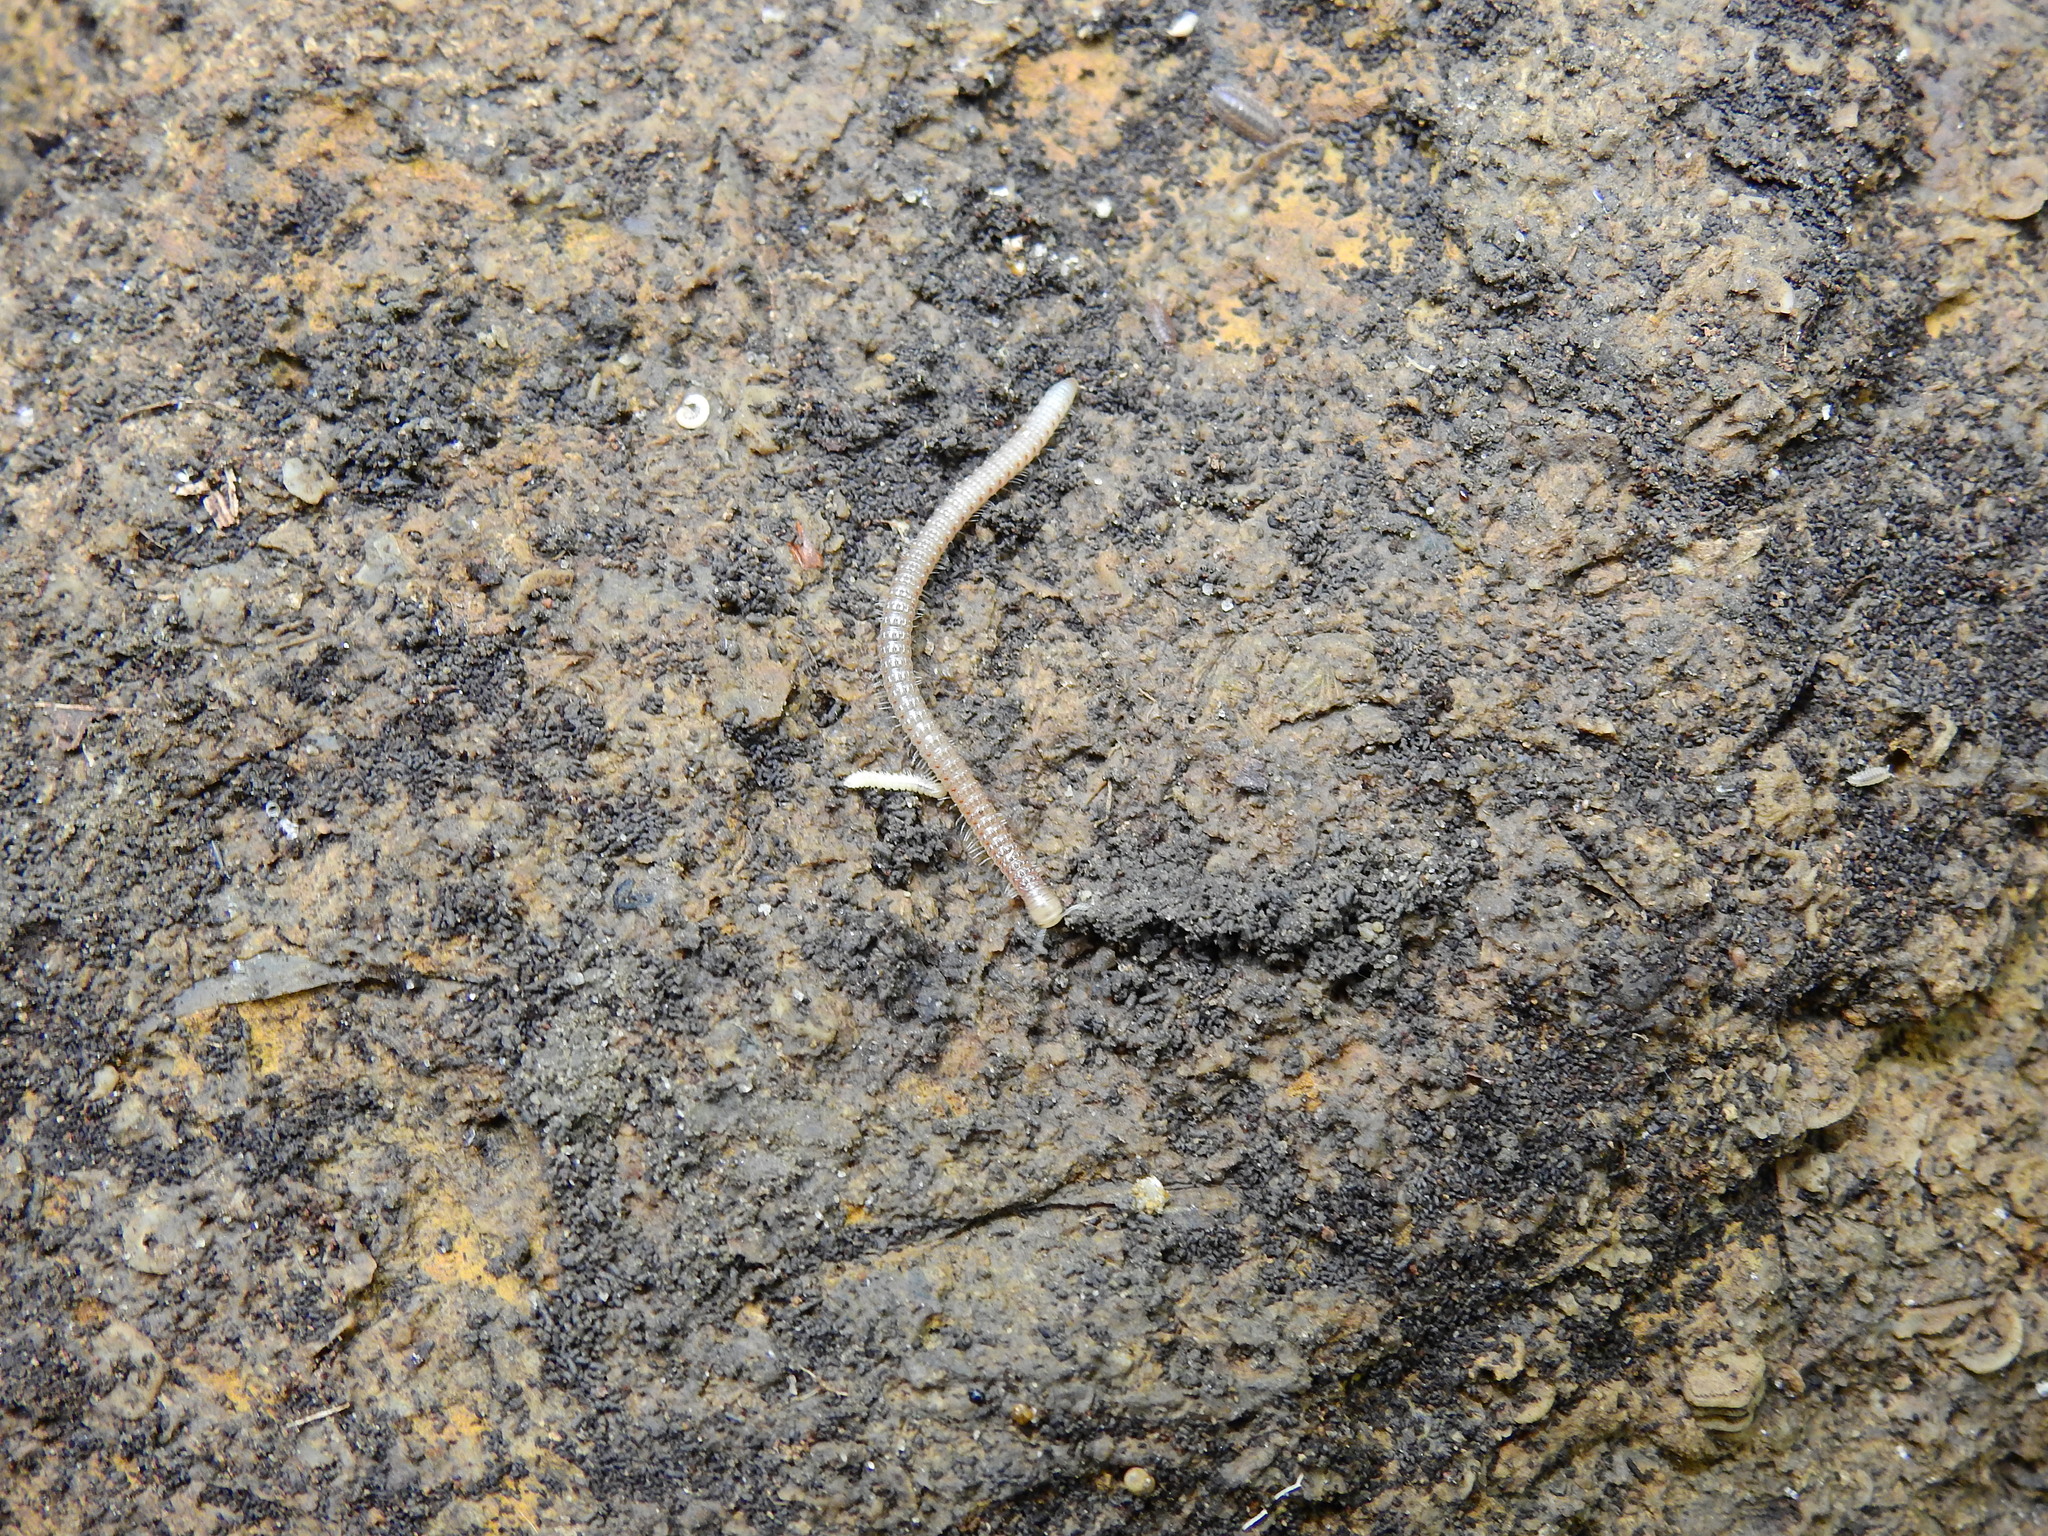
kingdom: Animalia
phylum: Arthropoda
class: Diplopoda
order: Spirostreptida
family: Cambalidae
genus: Cambala
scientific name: Cambala minor
